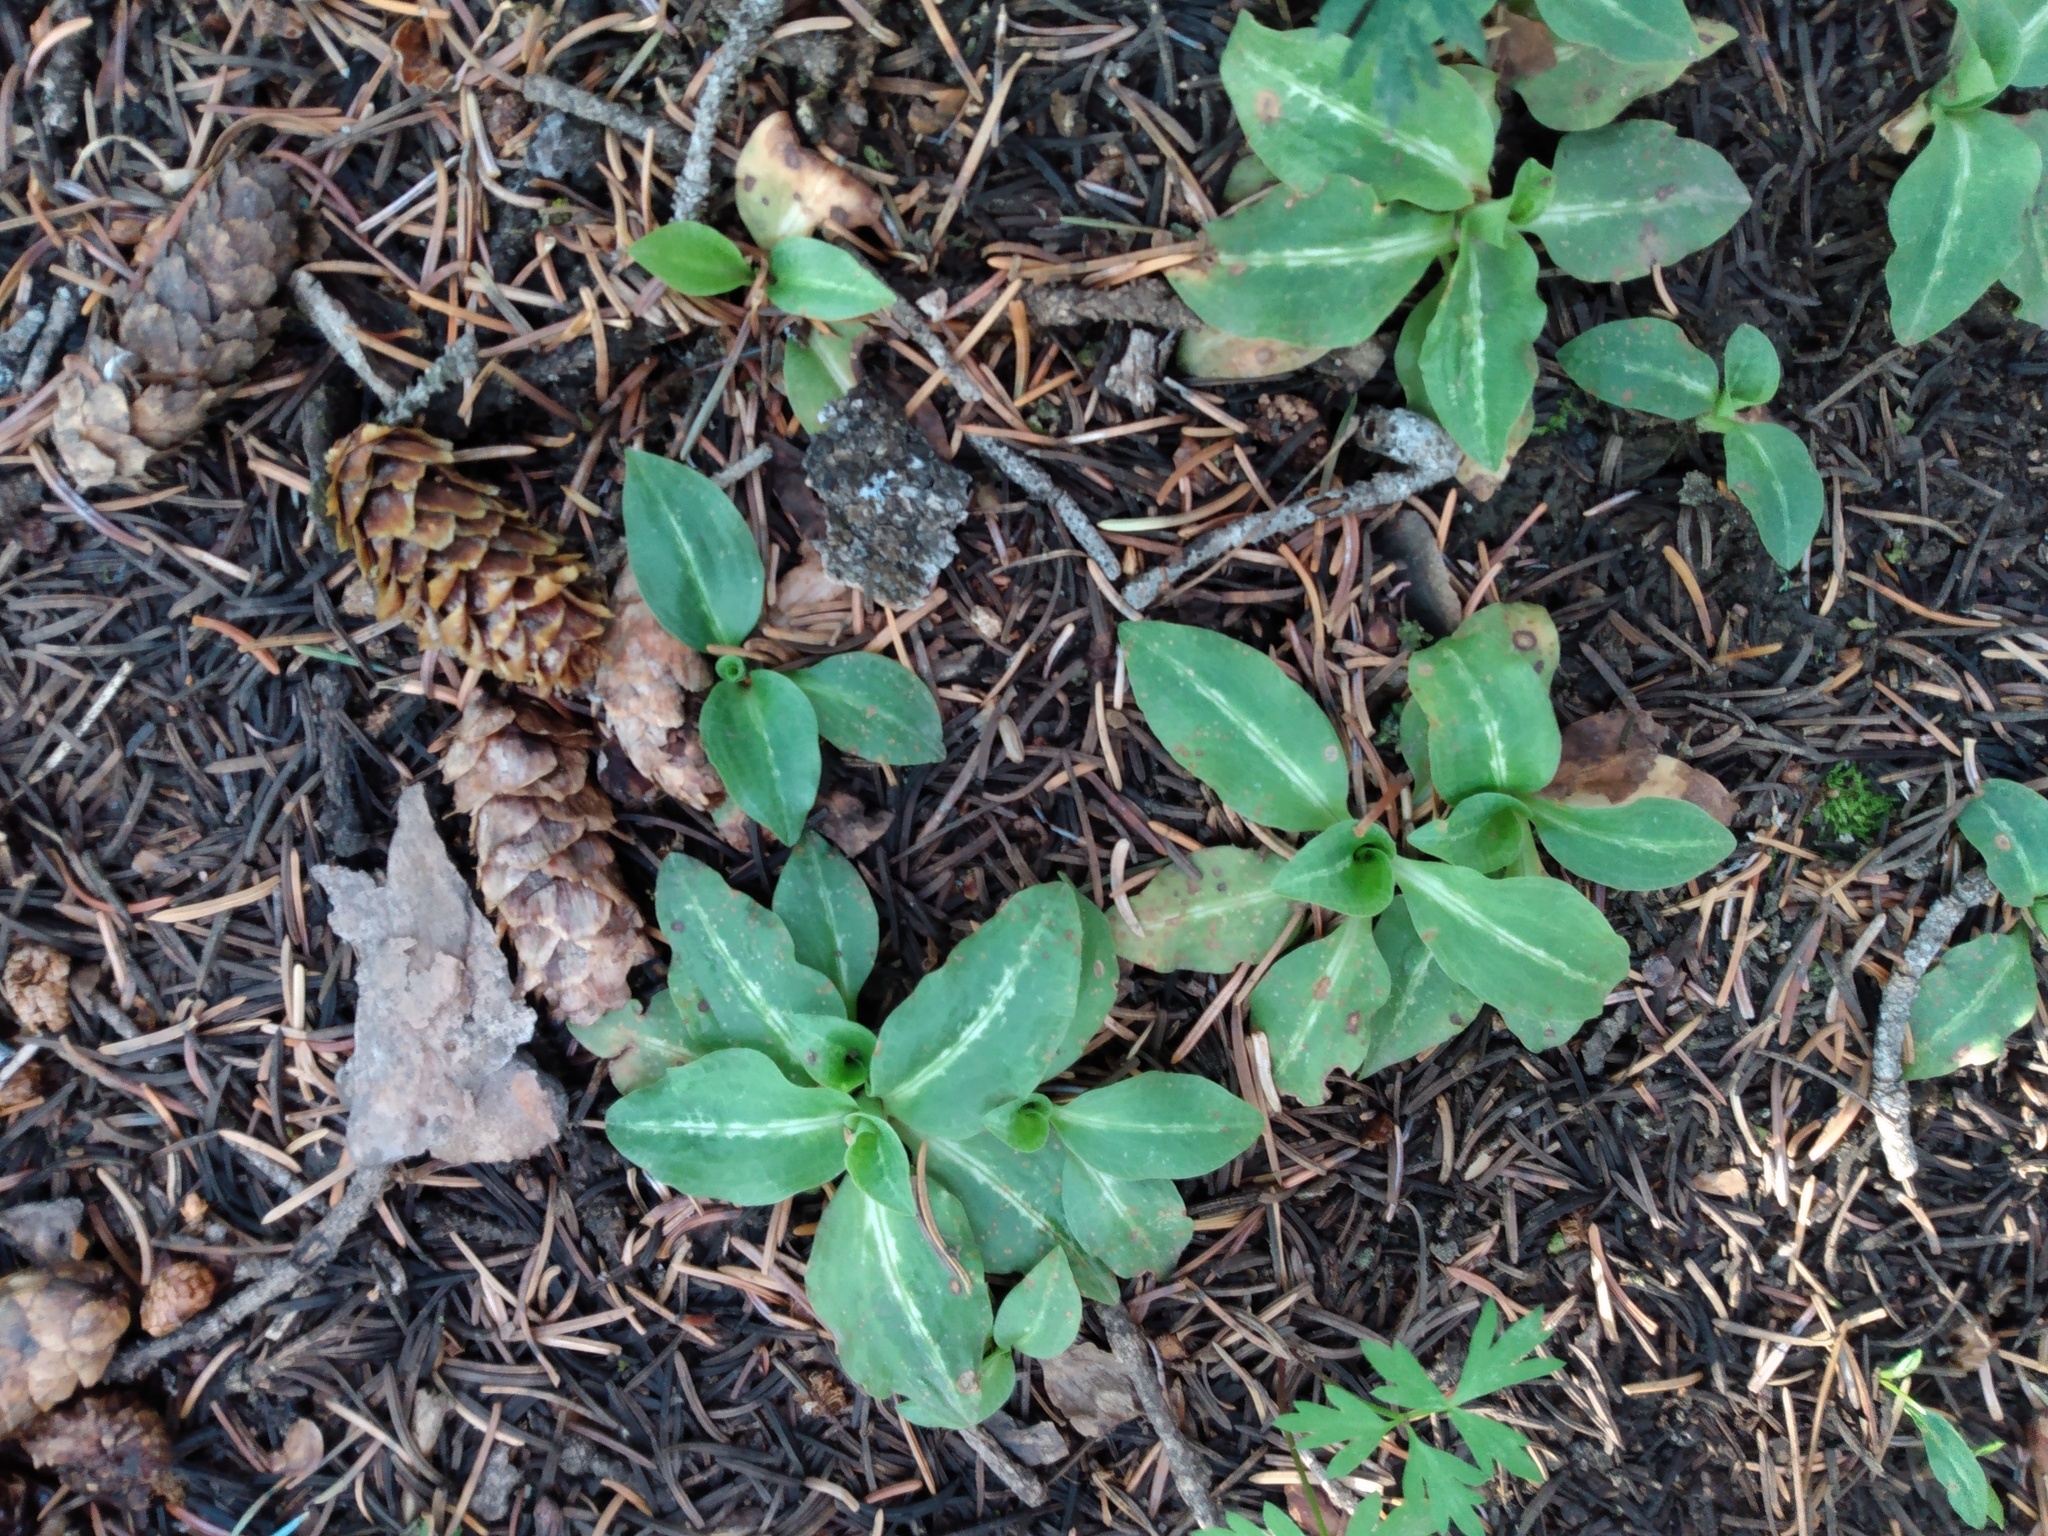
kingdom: Plantae
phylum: Tracheophyta
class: Liliopsida
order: Asparagales
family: Orchidaceae
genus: Goodyera
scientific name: Goodyera oblongifolia
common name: Giant rattlesnake-plantain
